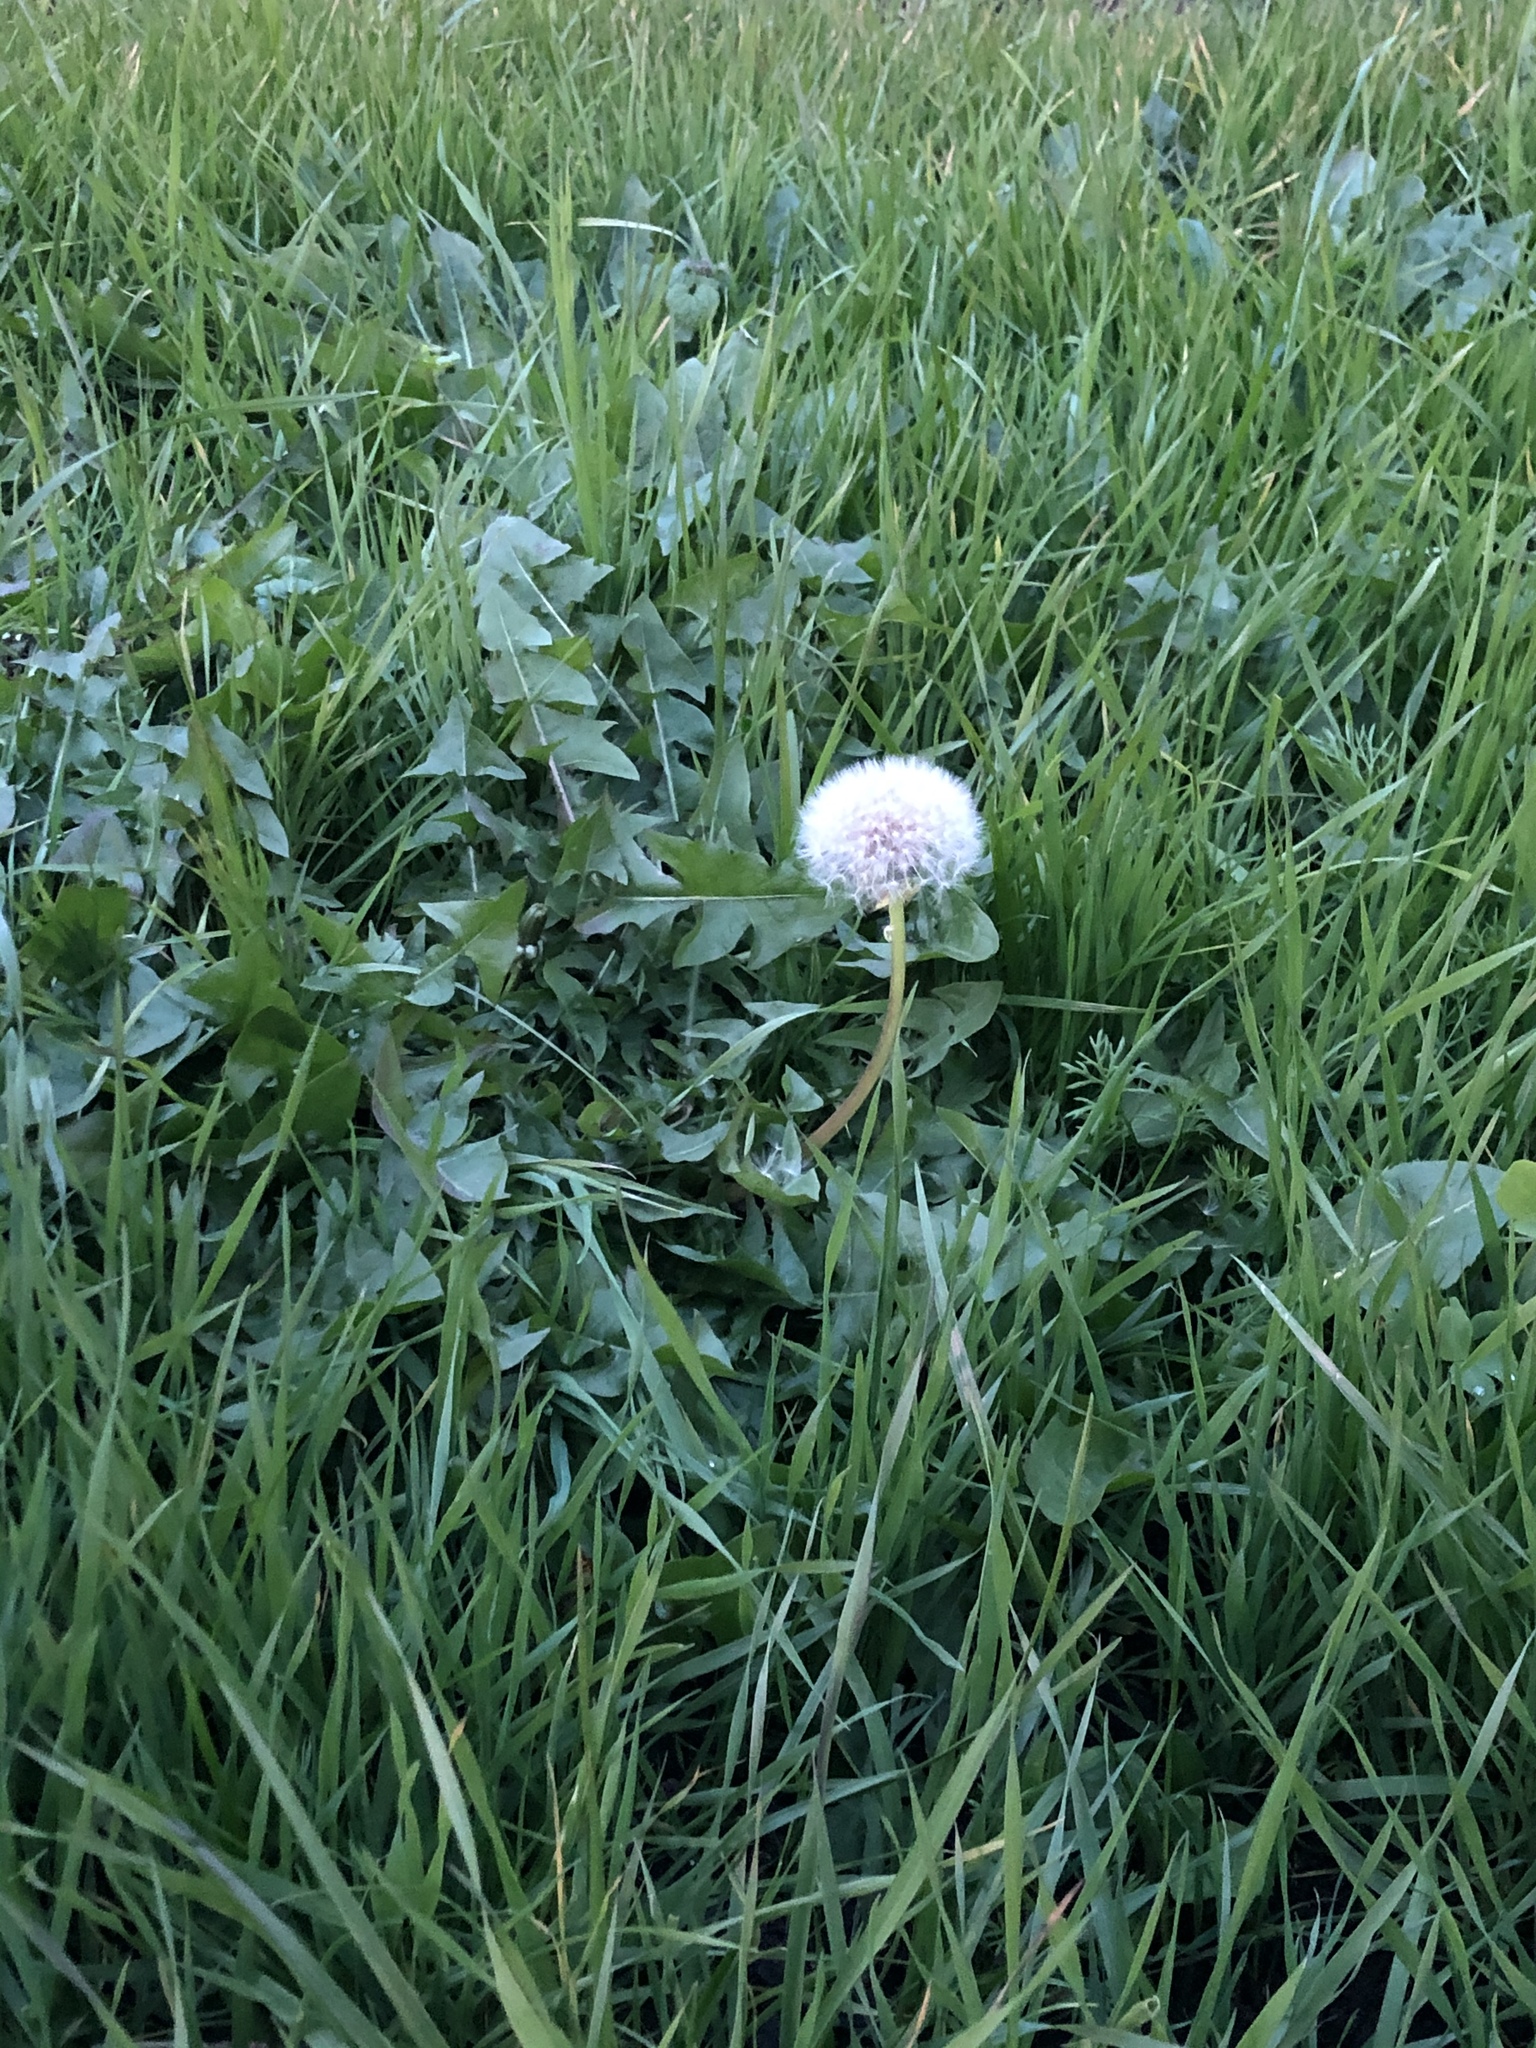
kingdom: Plantae
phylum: Tracheophyta
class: Magnoliopsida
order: Asterales
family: Asteraceae
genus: Taraxacum
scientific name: Taraxacum officinale
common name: Common dandelion
